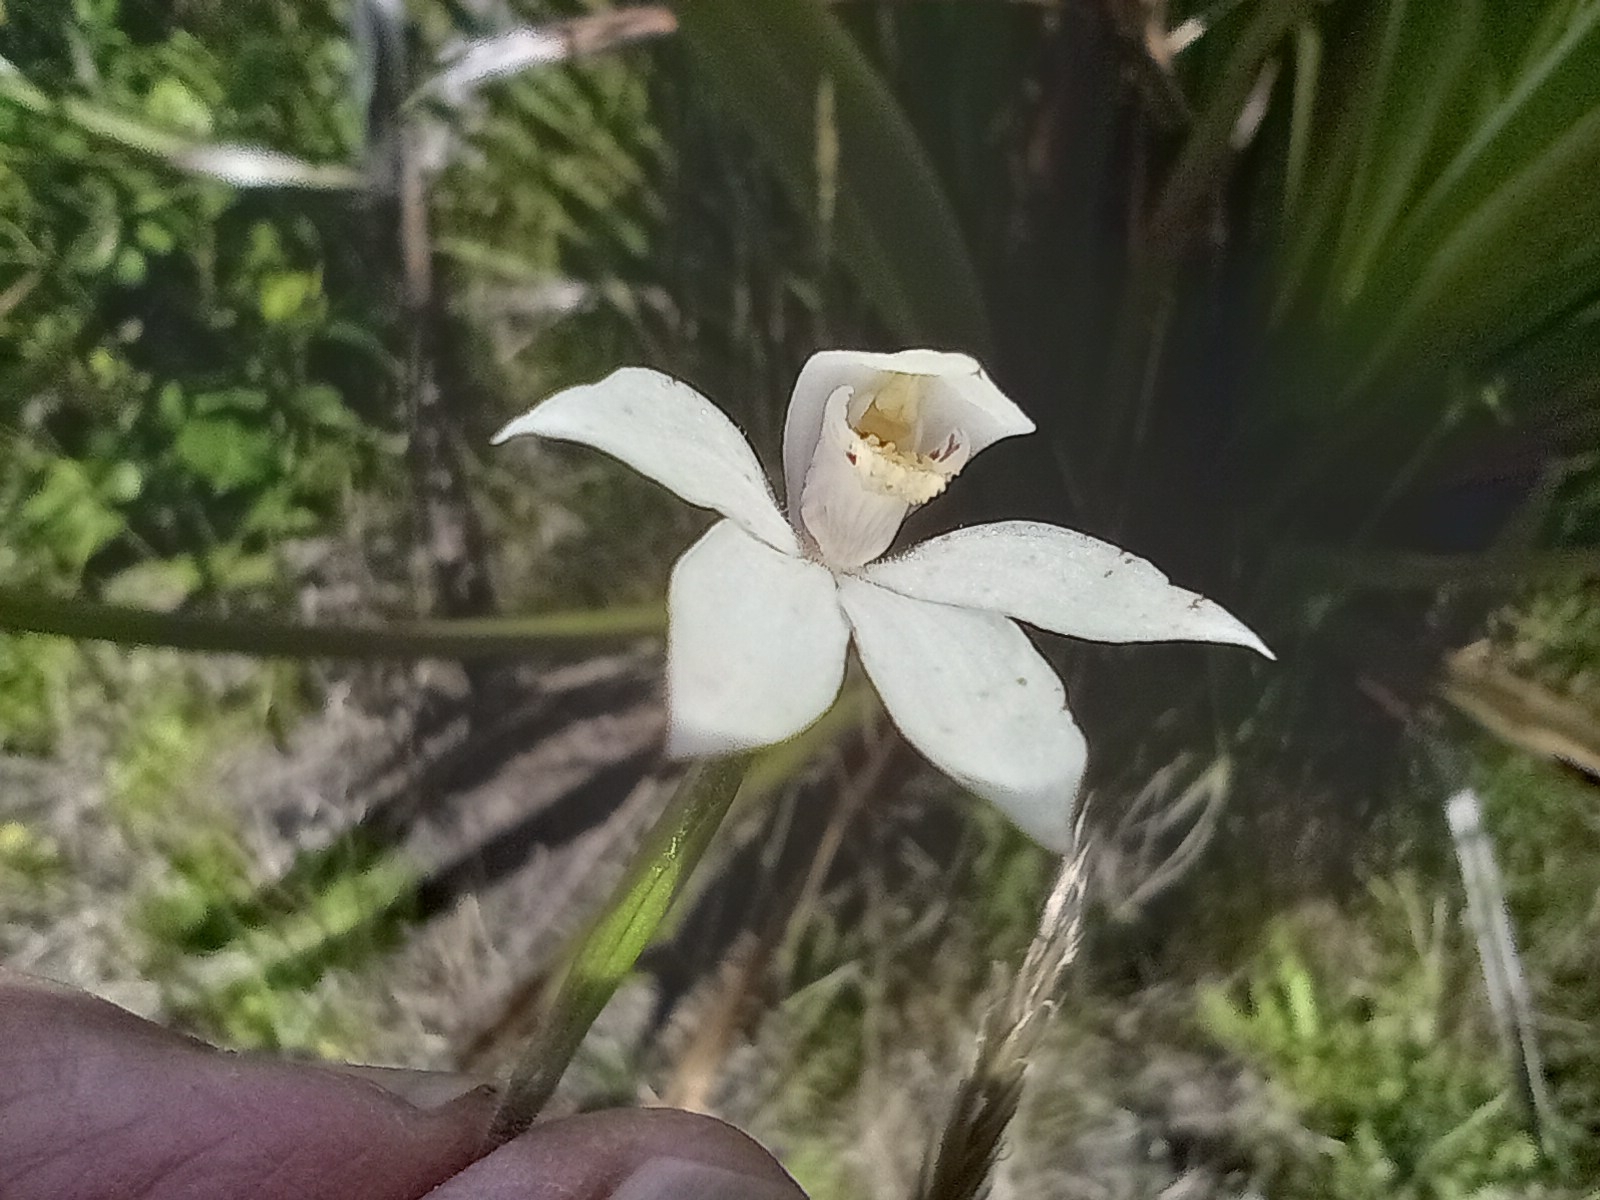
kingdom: Plantae
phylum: Tracheophyta
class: Liliopsida
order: Asparagales
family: Orchidaceae
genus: Caladenia
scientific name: Caladenia lyallii
